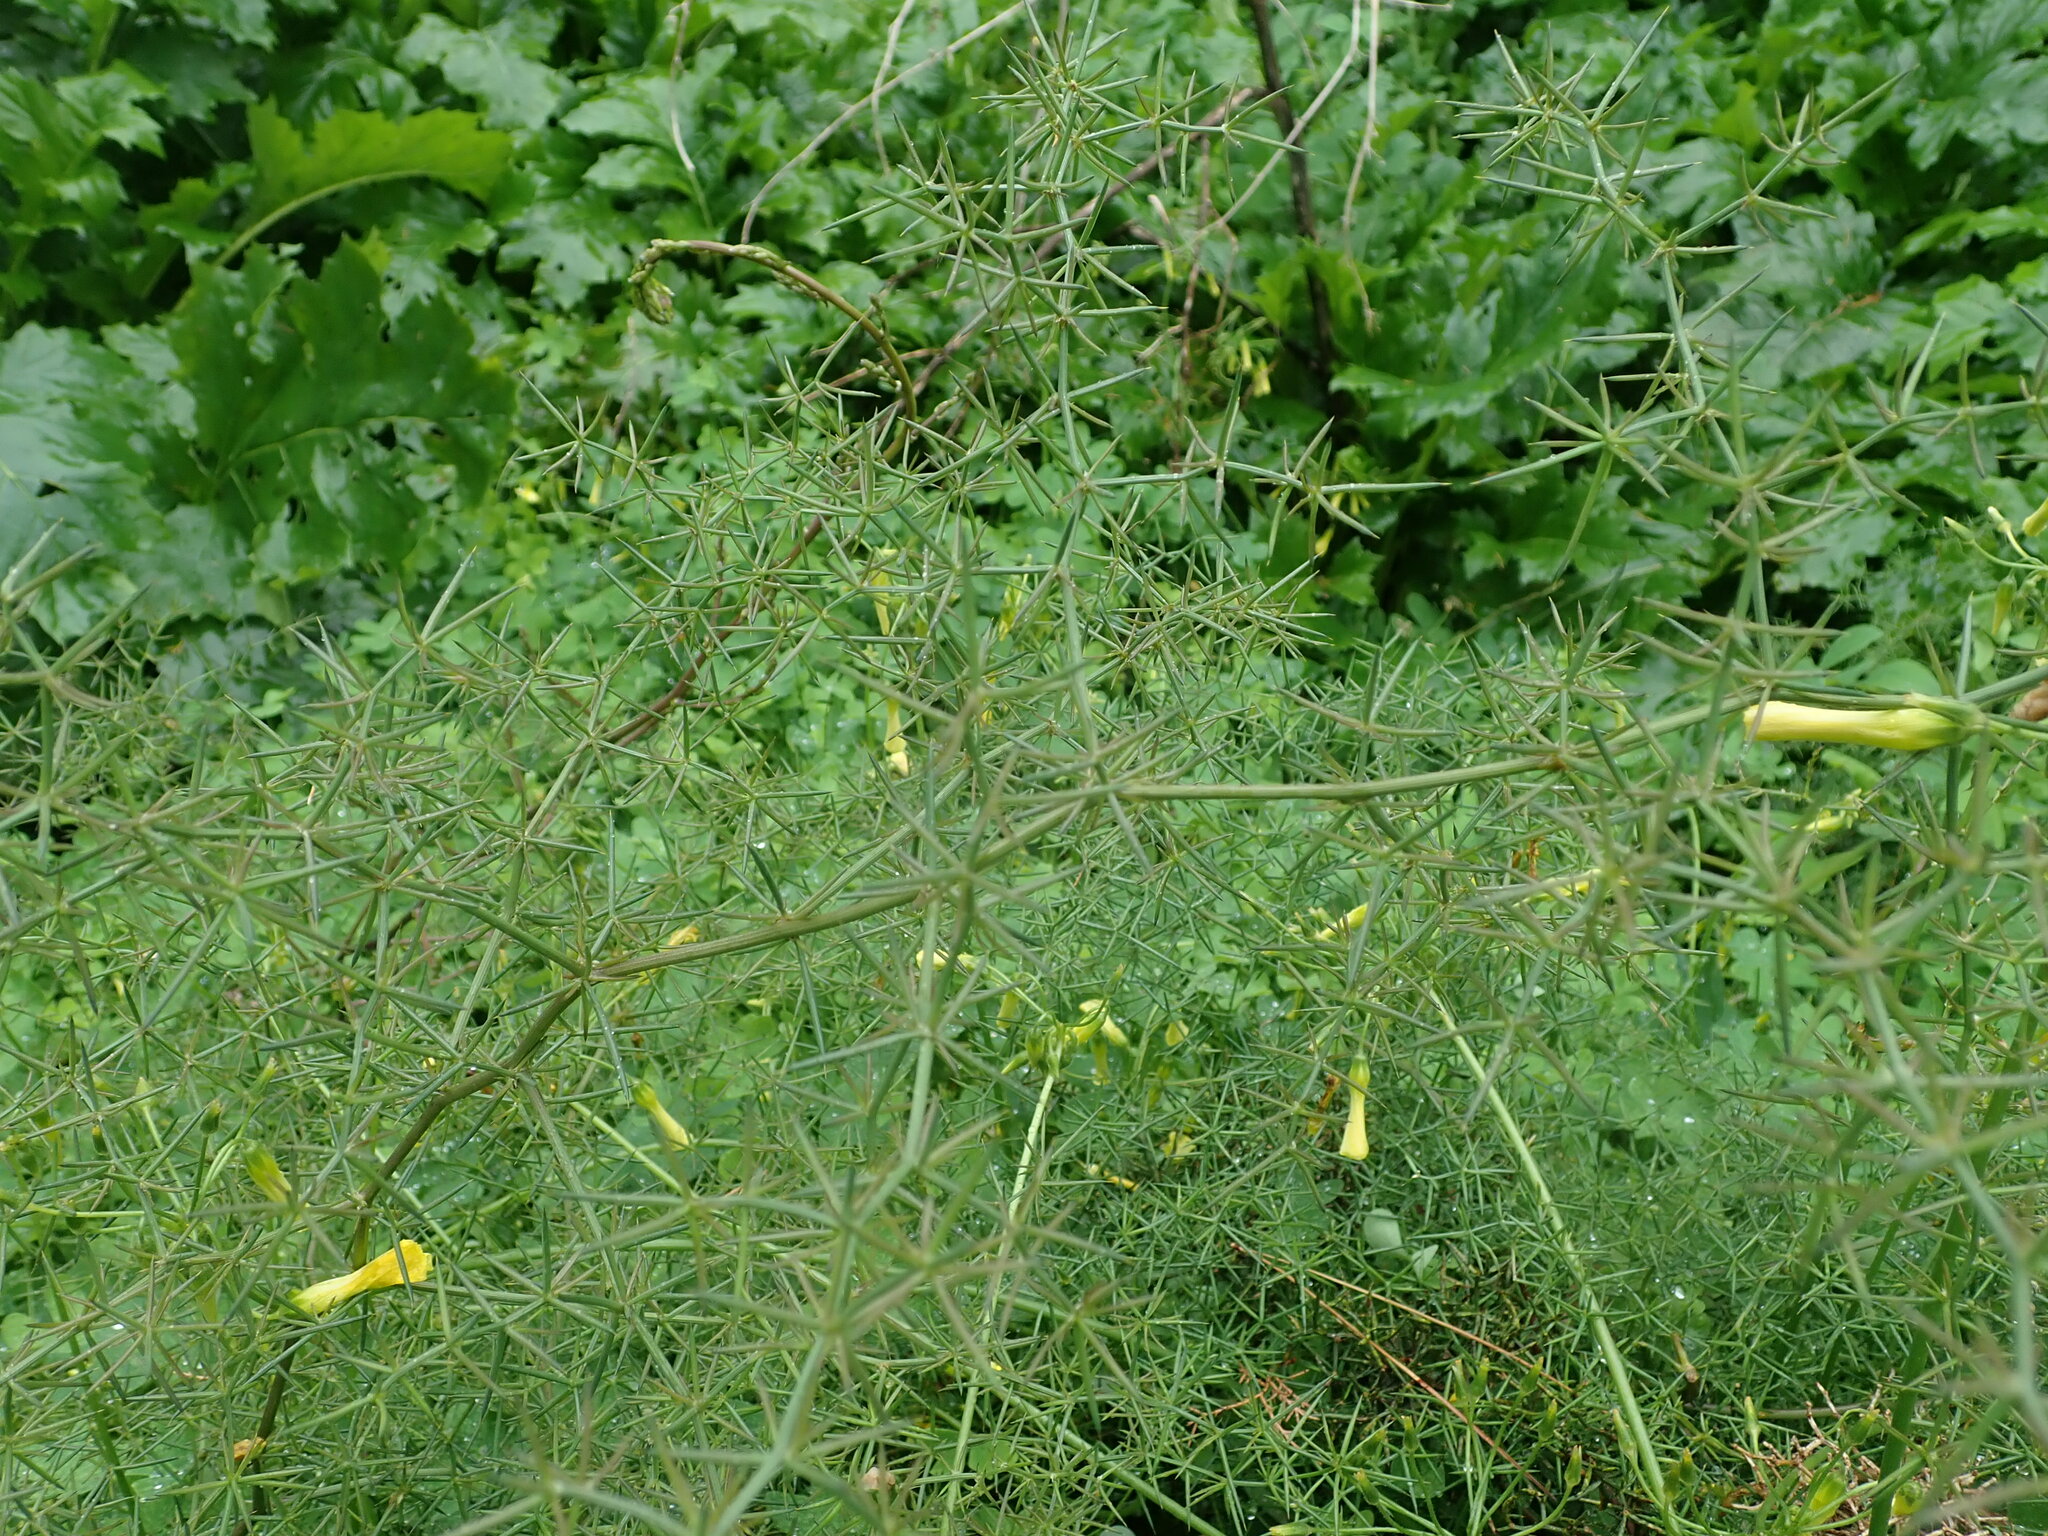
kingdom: Plantae
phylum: Tracheophyta
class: Liliopsida
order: Asparagales
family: Asparagaceae
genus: Asparagus
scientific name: Asparagus aphyllus
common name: Mediterranean asparagus
